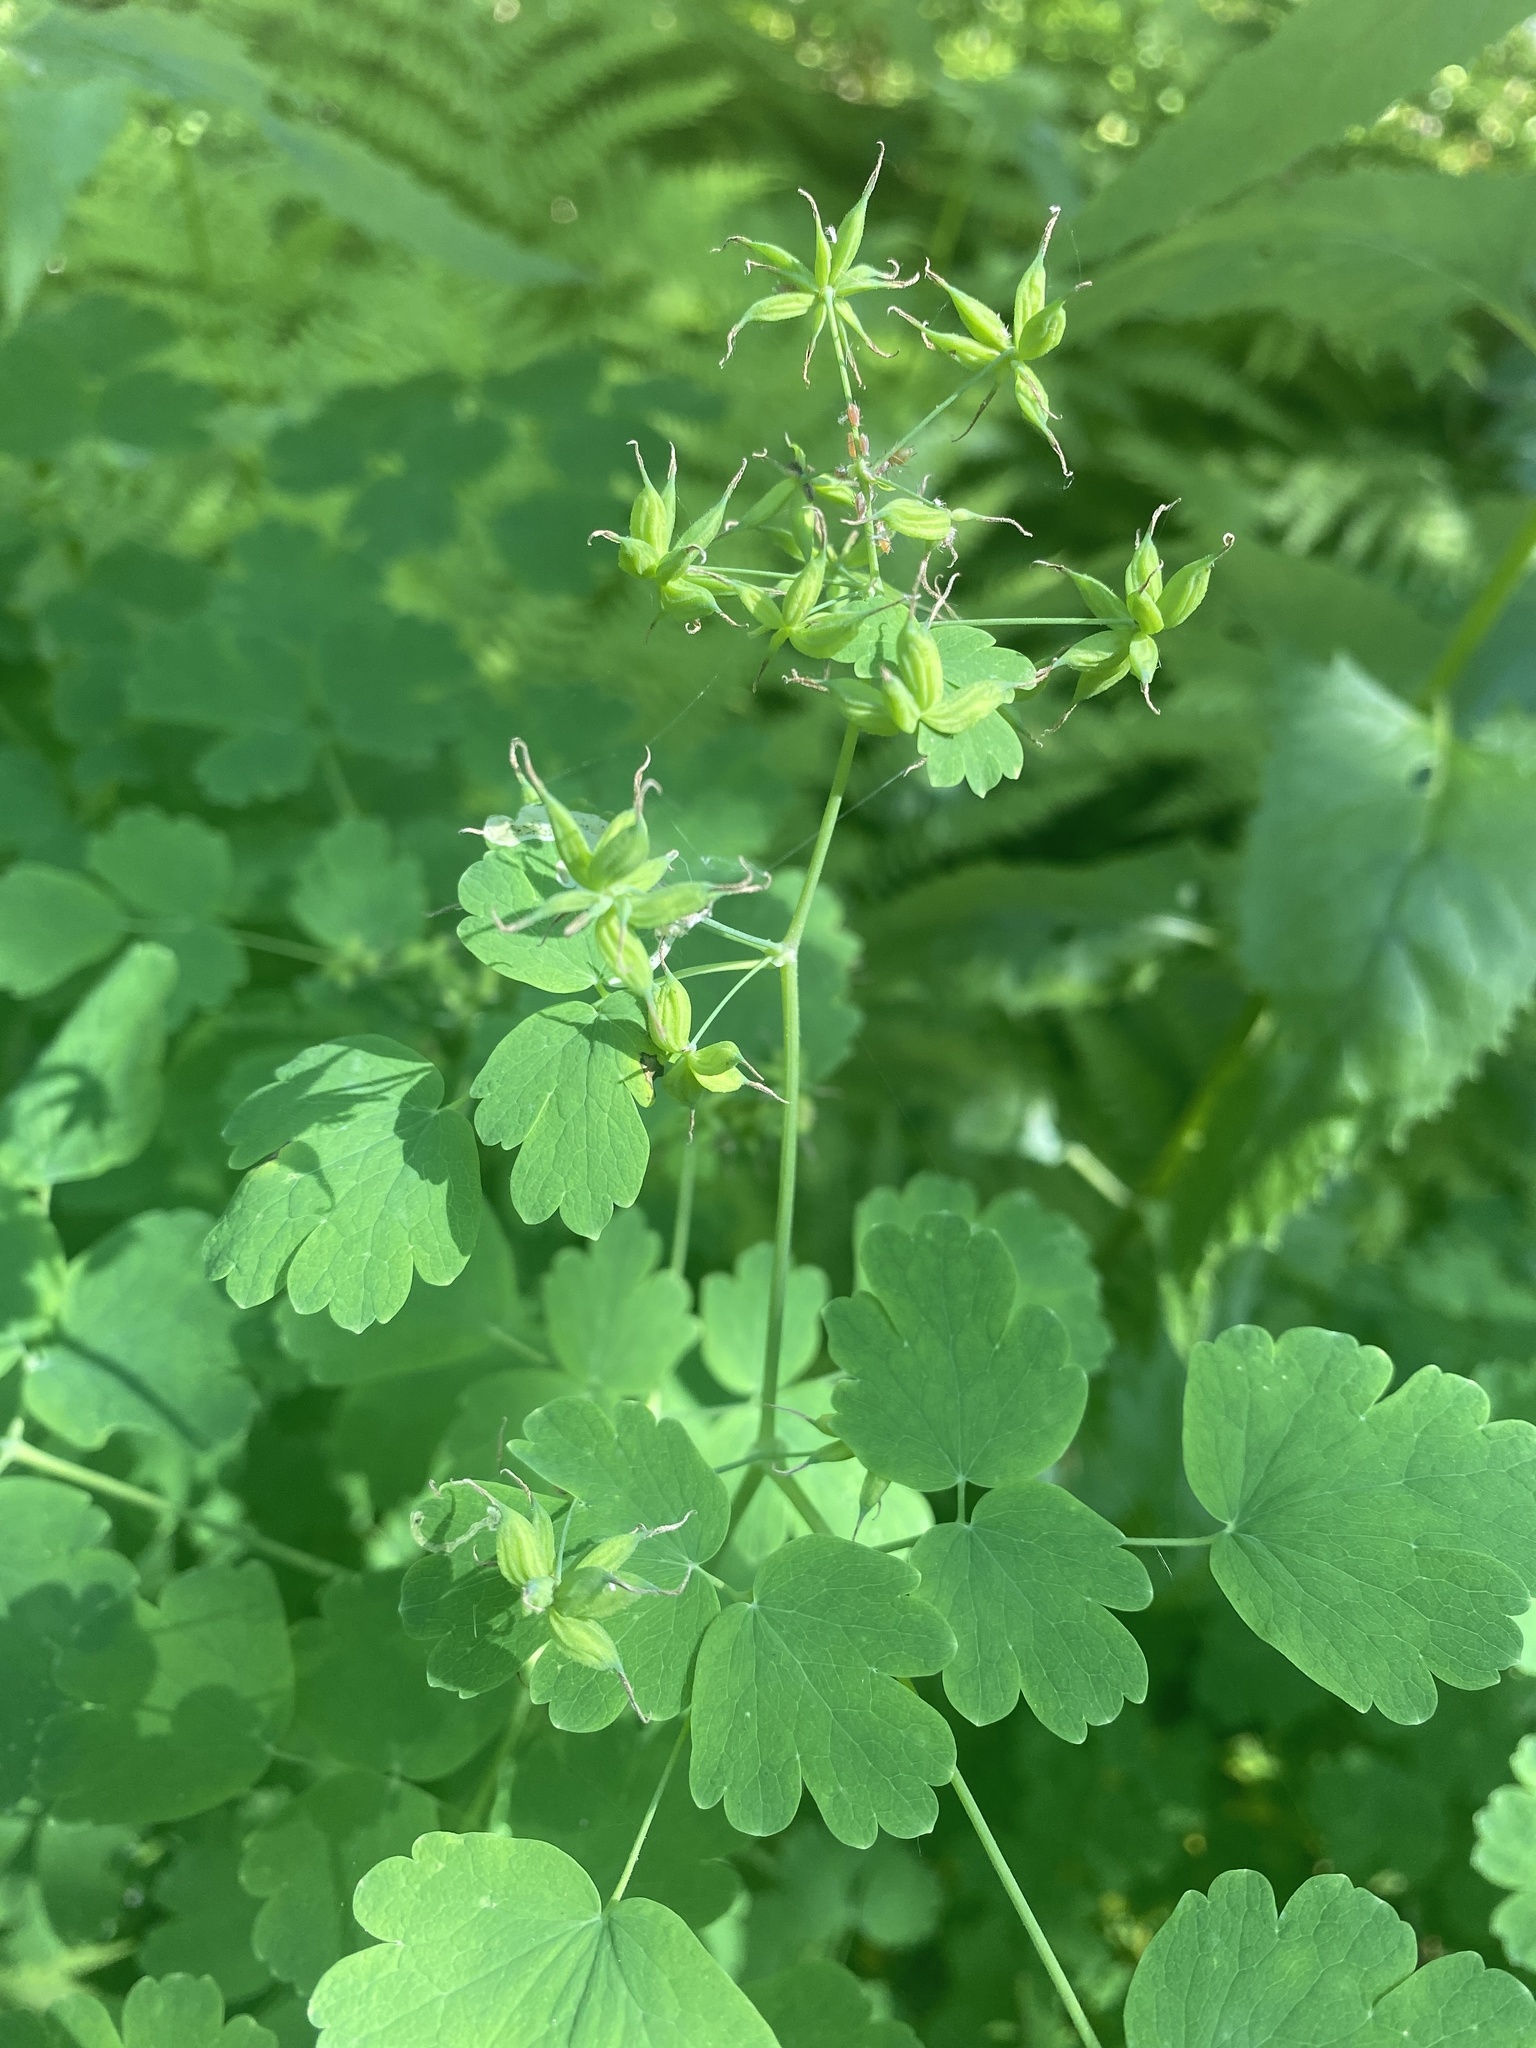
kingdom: Plantae
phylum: Tracheophyta
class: Magnoliopsida
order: Ranunculales
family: Ranunculaceae
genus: Thalictrum
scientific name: Thalictrum occidentale
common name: Western meadow-rue
